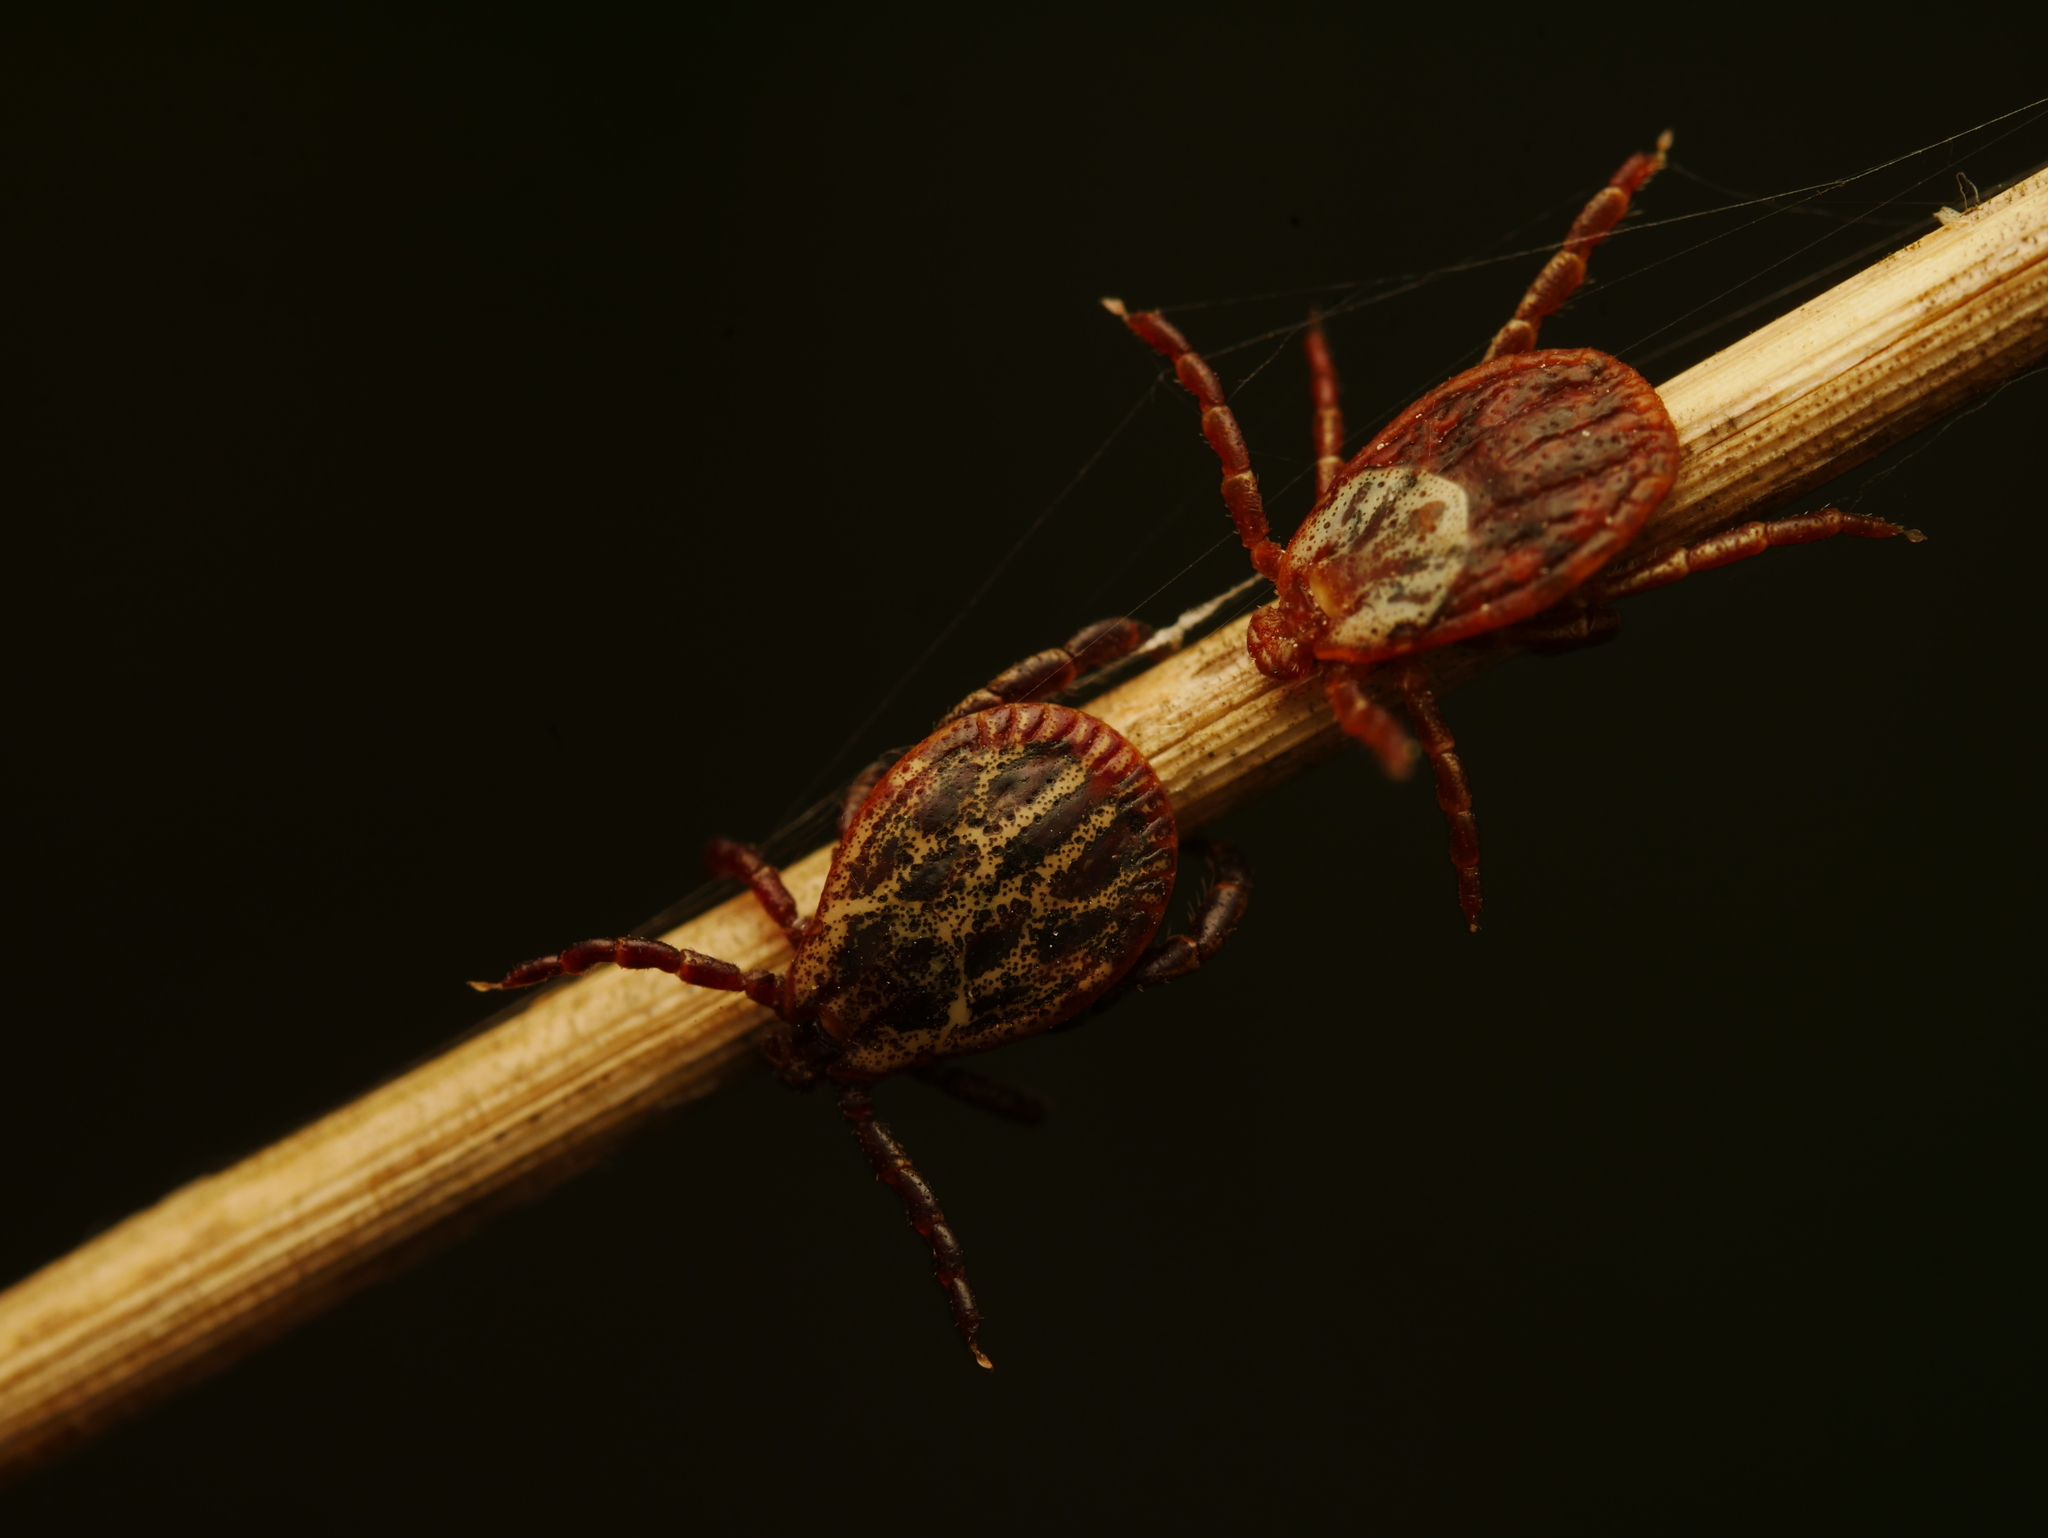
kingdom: Animalia
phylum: Arthropoda
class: Arachnida
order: Ixodida
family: Ixodidae
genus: Dermacentor
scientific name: Dermacentor reticulatus
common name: Ornate cow tick
